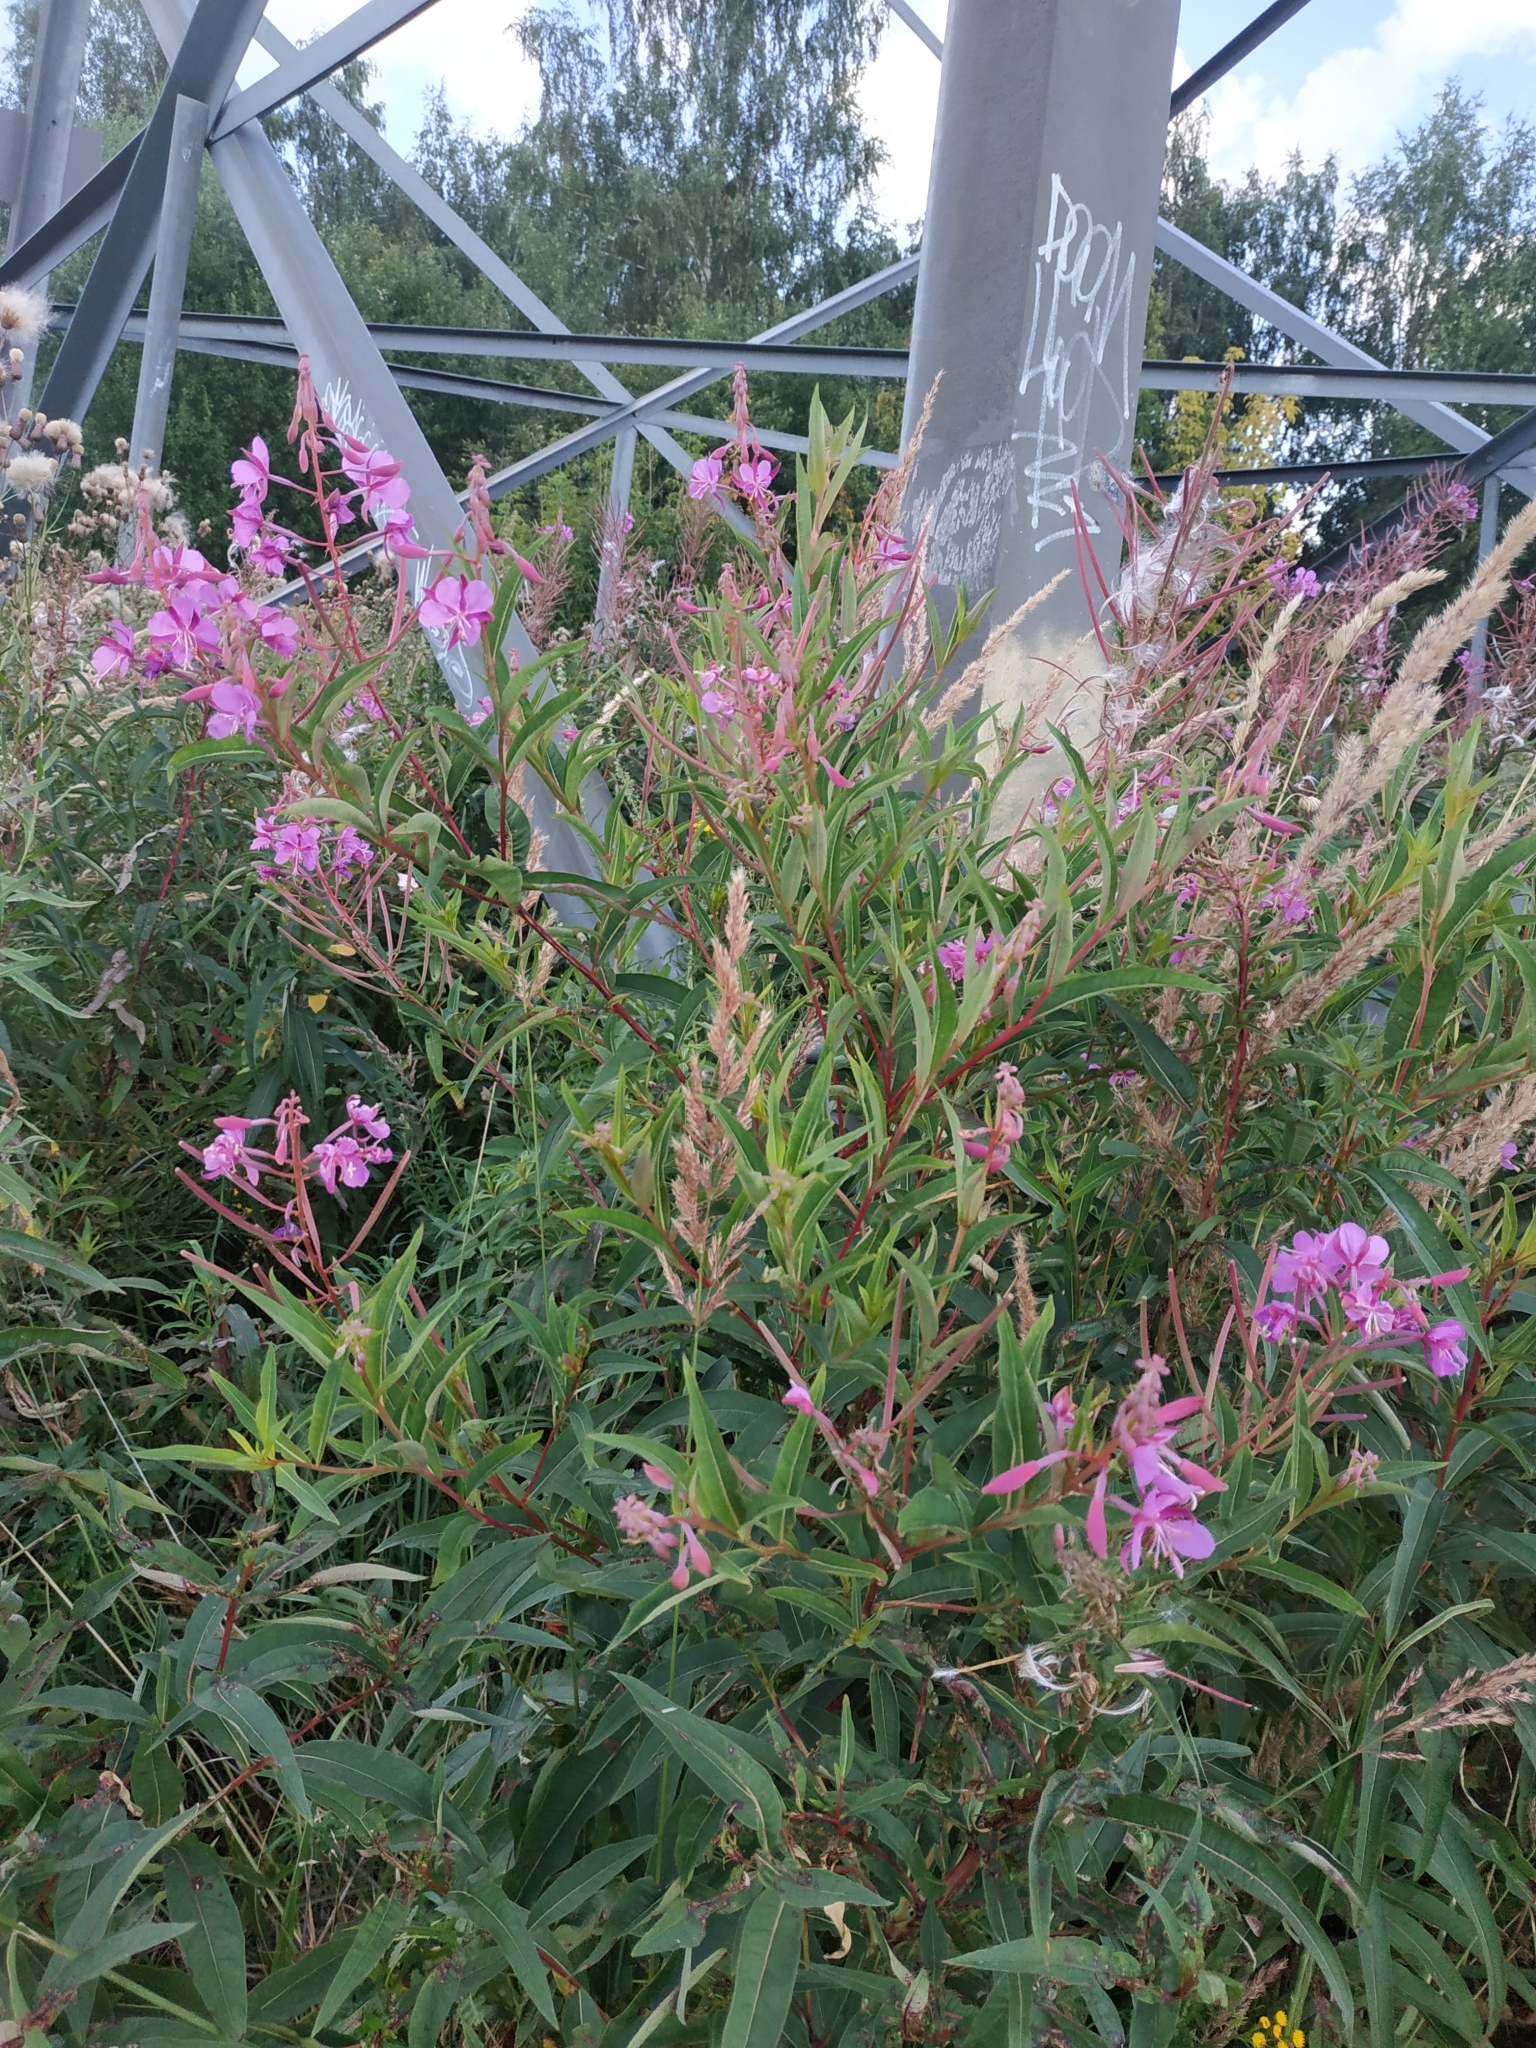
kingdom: Plantae
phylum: Tracheophyta
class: Magnoliopsida
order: Myrtales
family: Onagraceae
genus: Chamaenerion
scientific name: Chamaenerion angustifolium
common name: Fireweed
